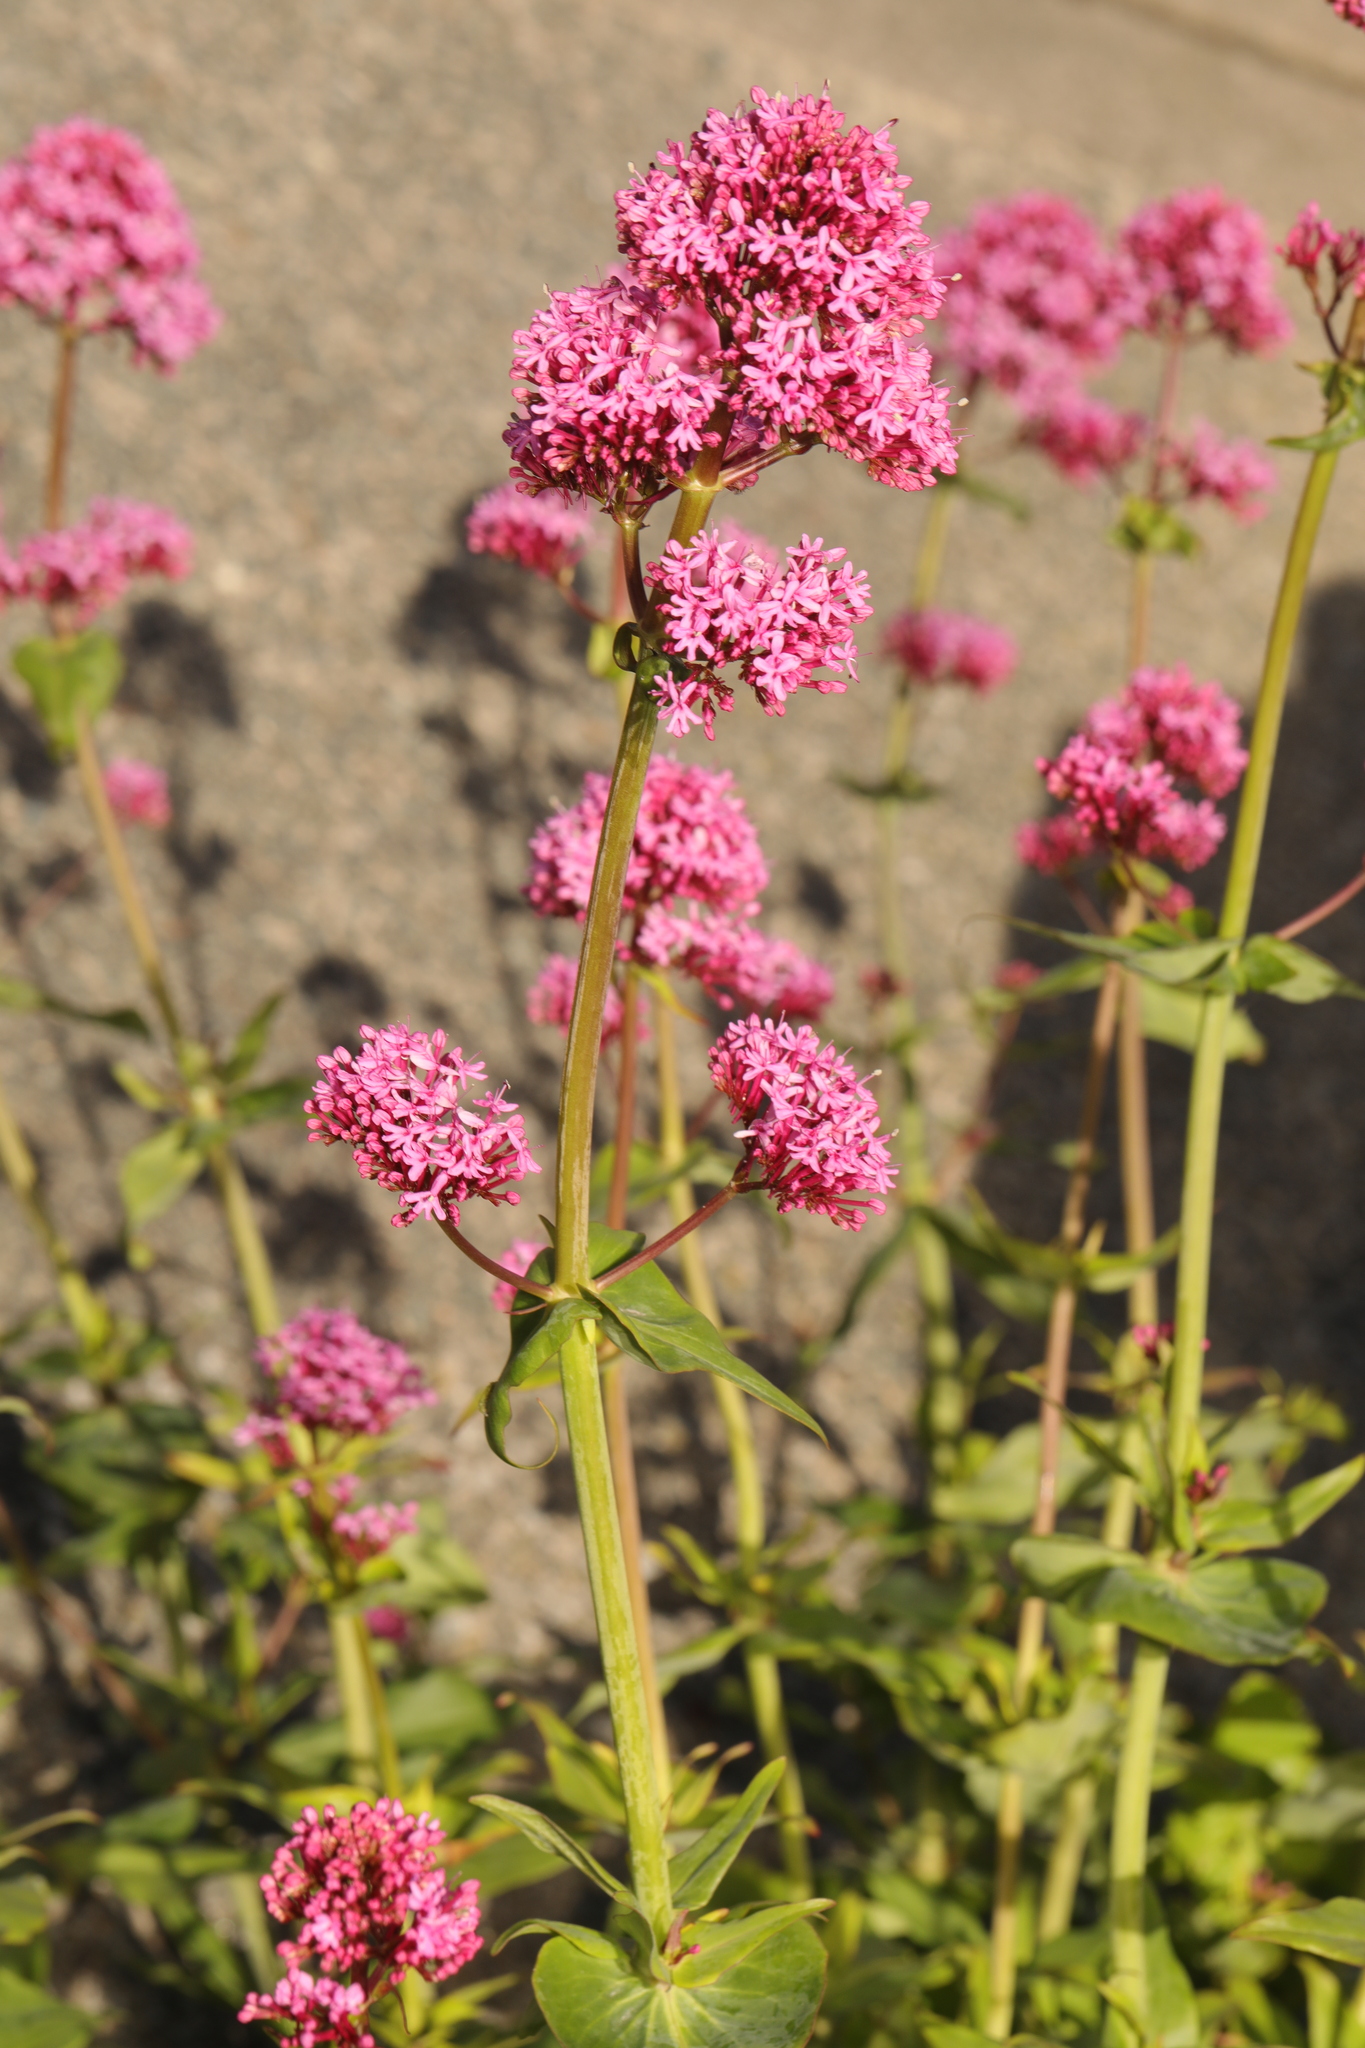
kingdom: Plantae
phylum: Tracheophyta
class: Magnoliopsida
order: Dipsacales
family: Caprifoliaceae
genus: Centranthus
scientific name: Centranthus ruber
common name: Red valerian
